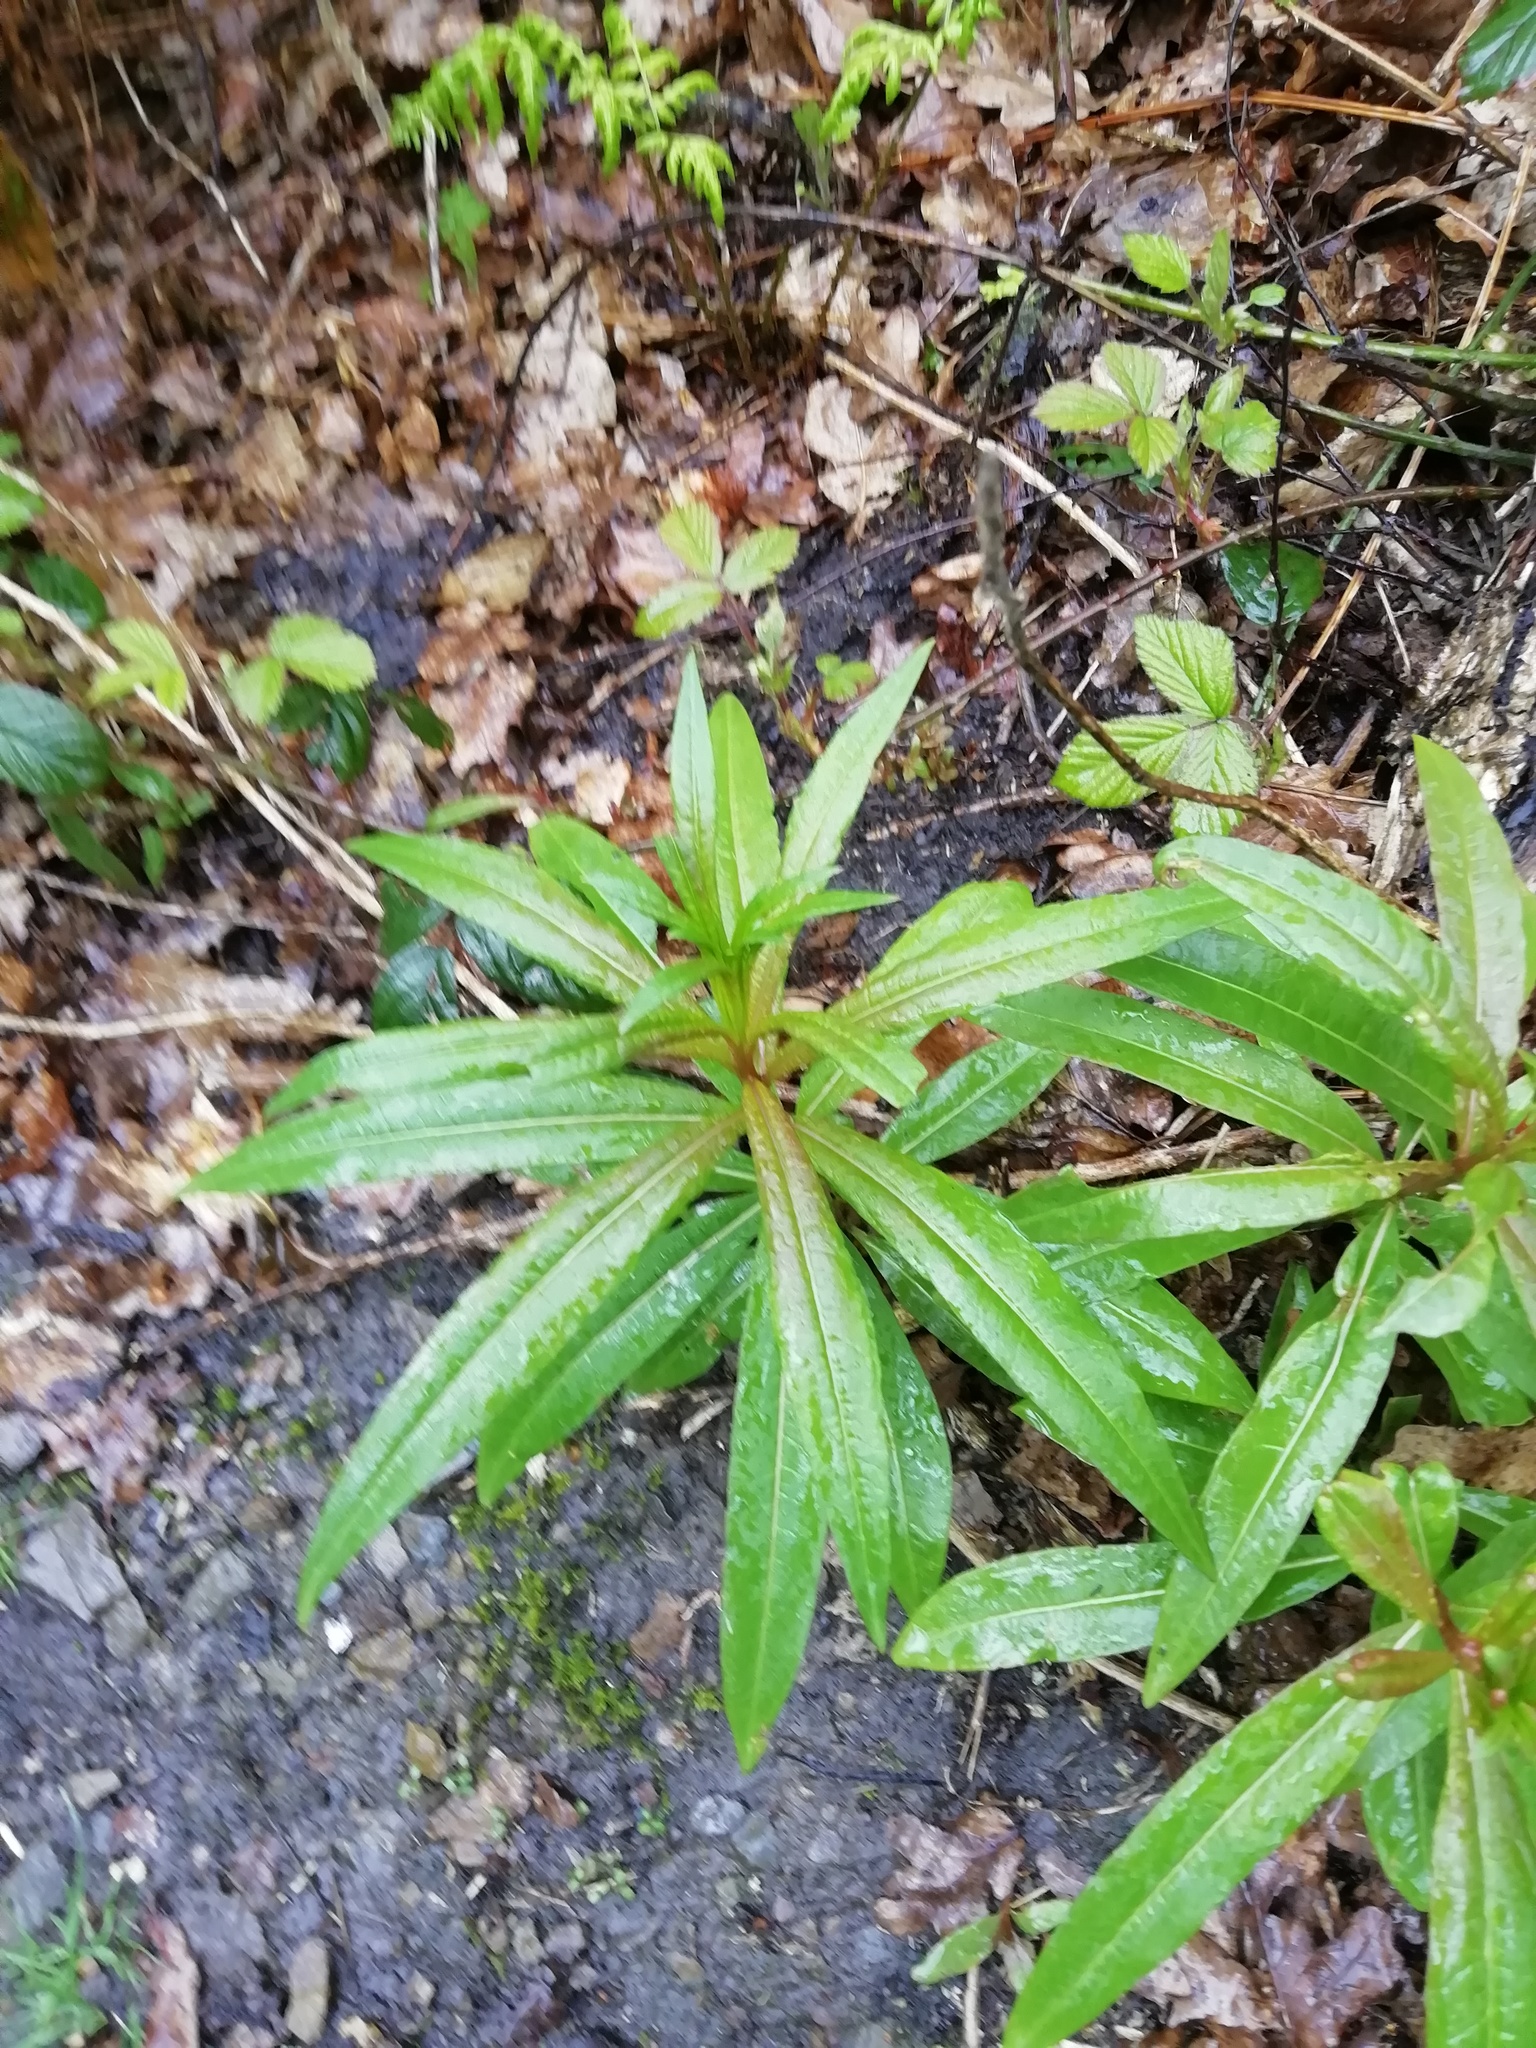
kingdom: Plantae
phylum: Tracheophyta
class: Magnoliopsida
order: Myrtales
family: Onagraceae
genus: Chamaenerion
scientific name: Chamaenerion angustifolium
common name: Fireweed
